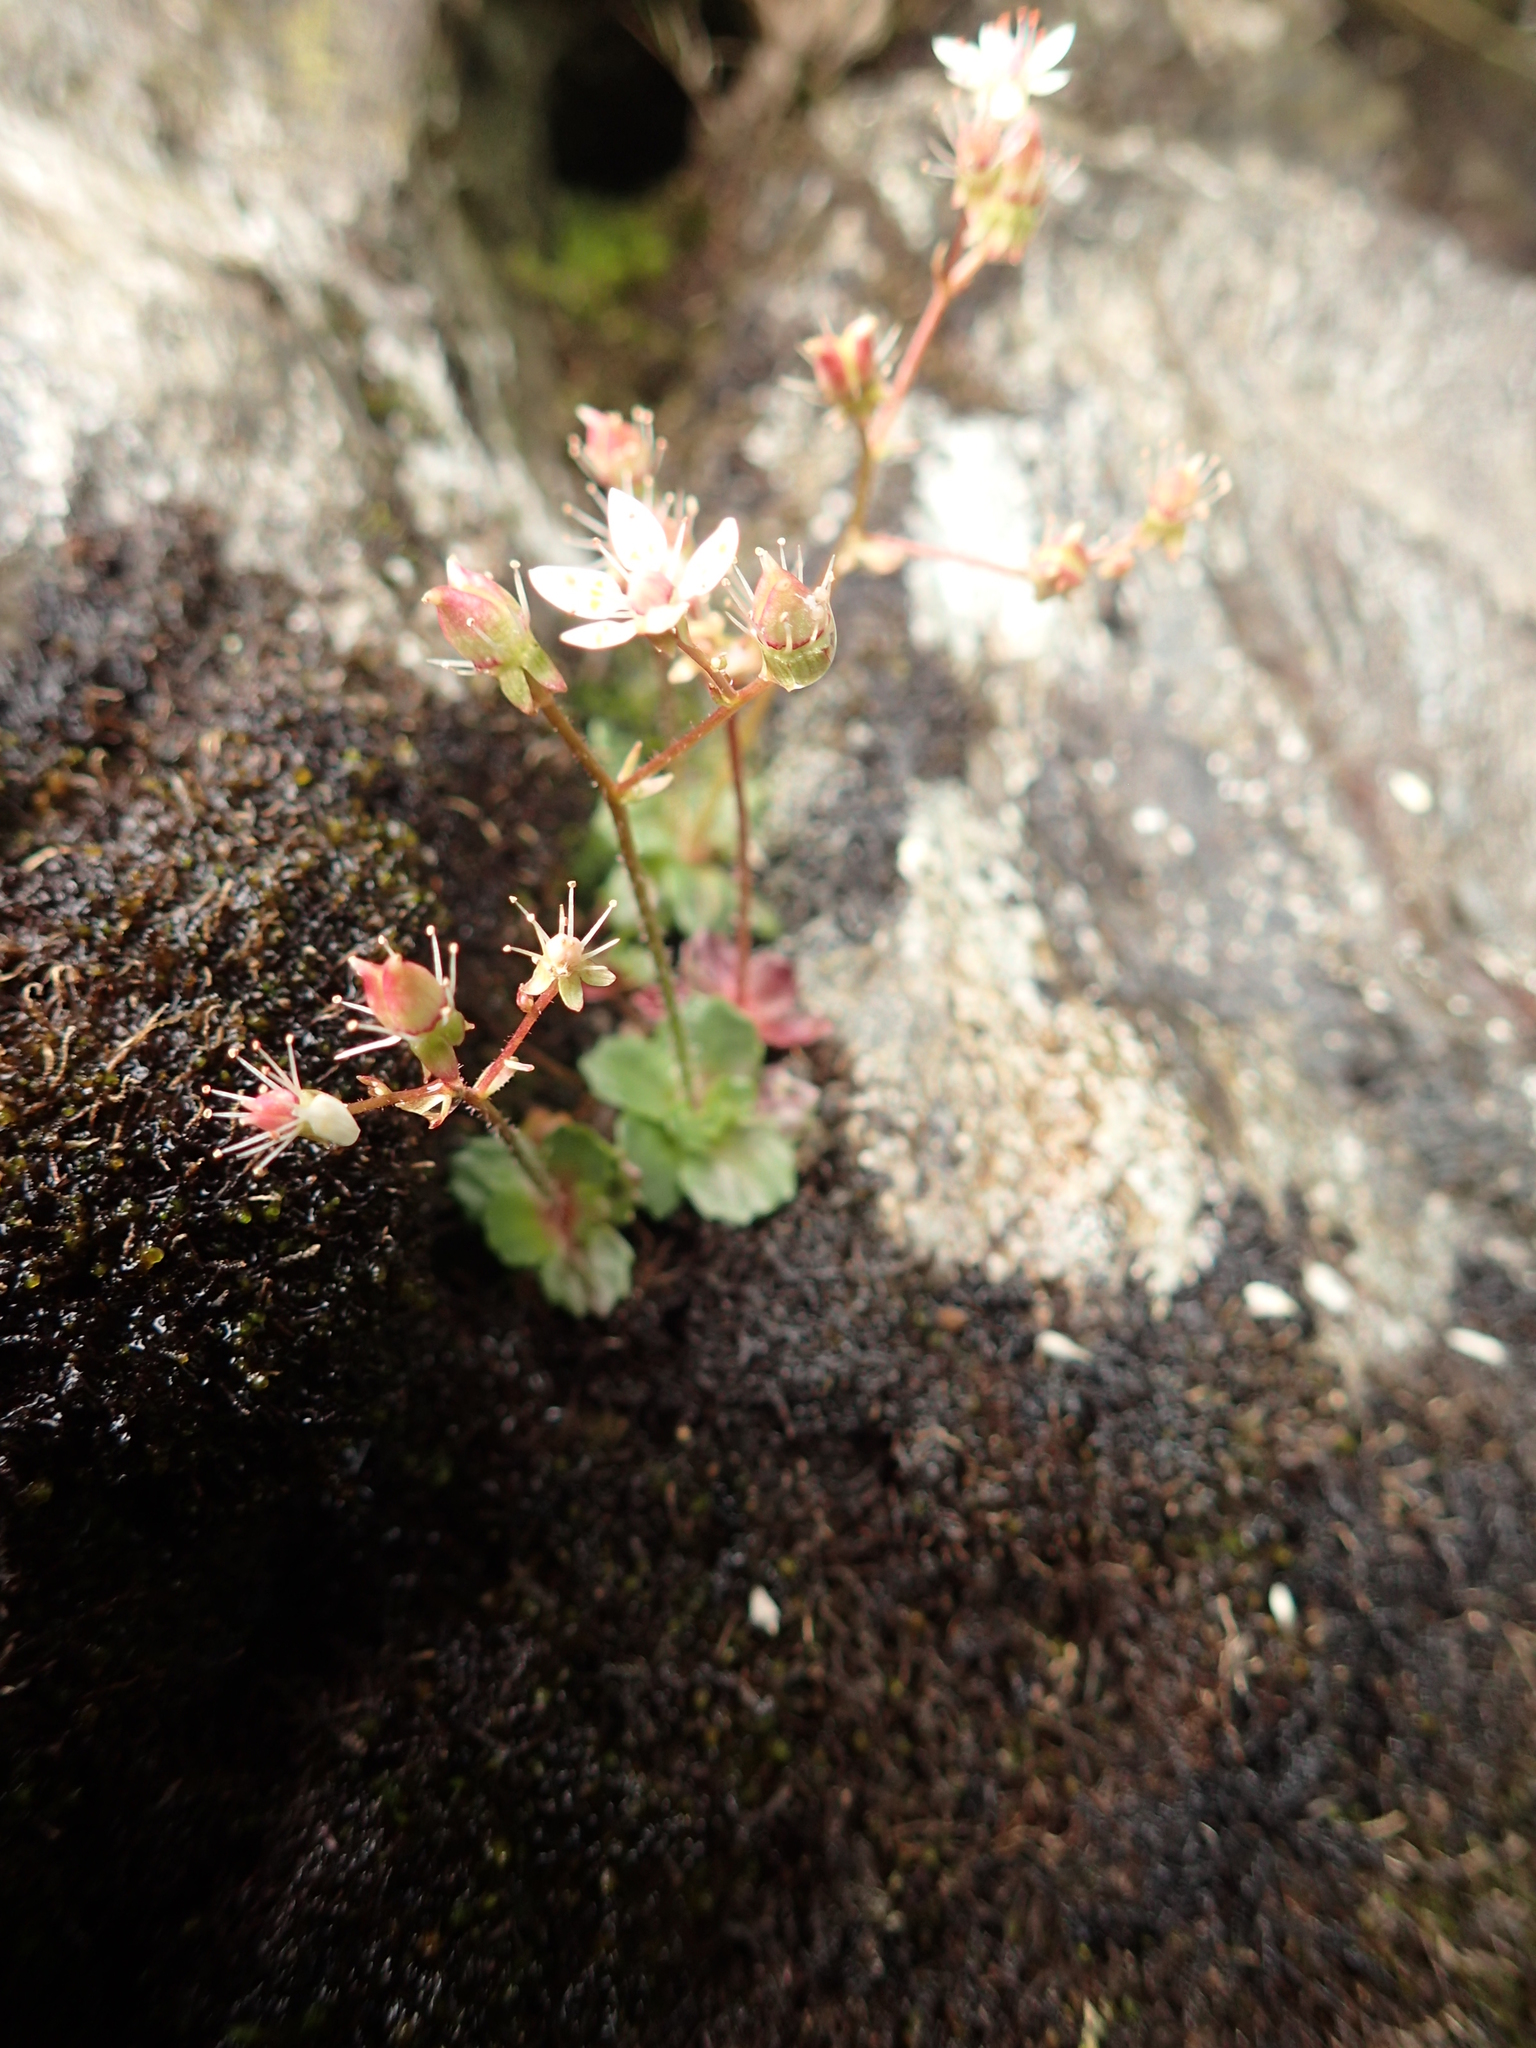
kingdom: Plantae
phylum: Tracheophyta
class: Magnoliopsida
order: Saxifragales
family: Saxifragaceae
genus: Micranthes
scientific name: Micranthes stellaris
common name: Starry saxifrage
